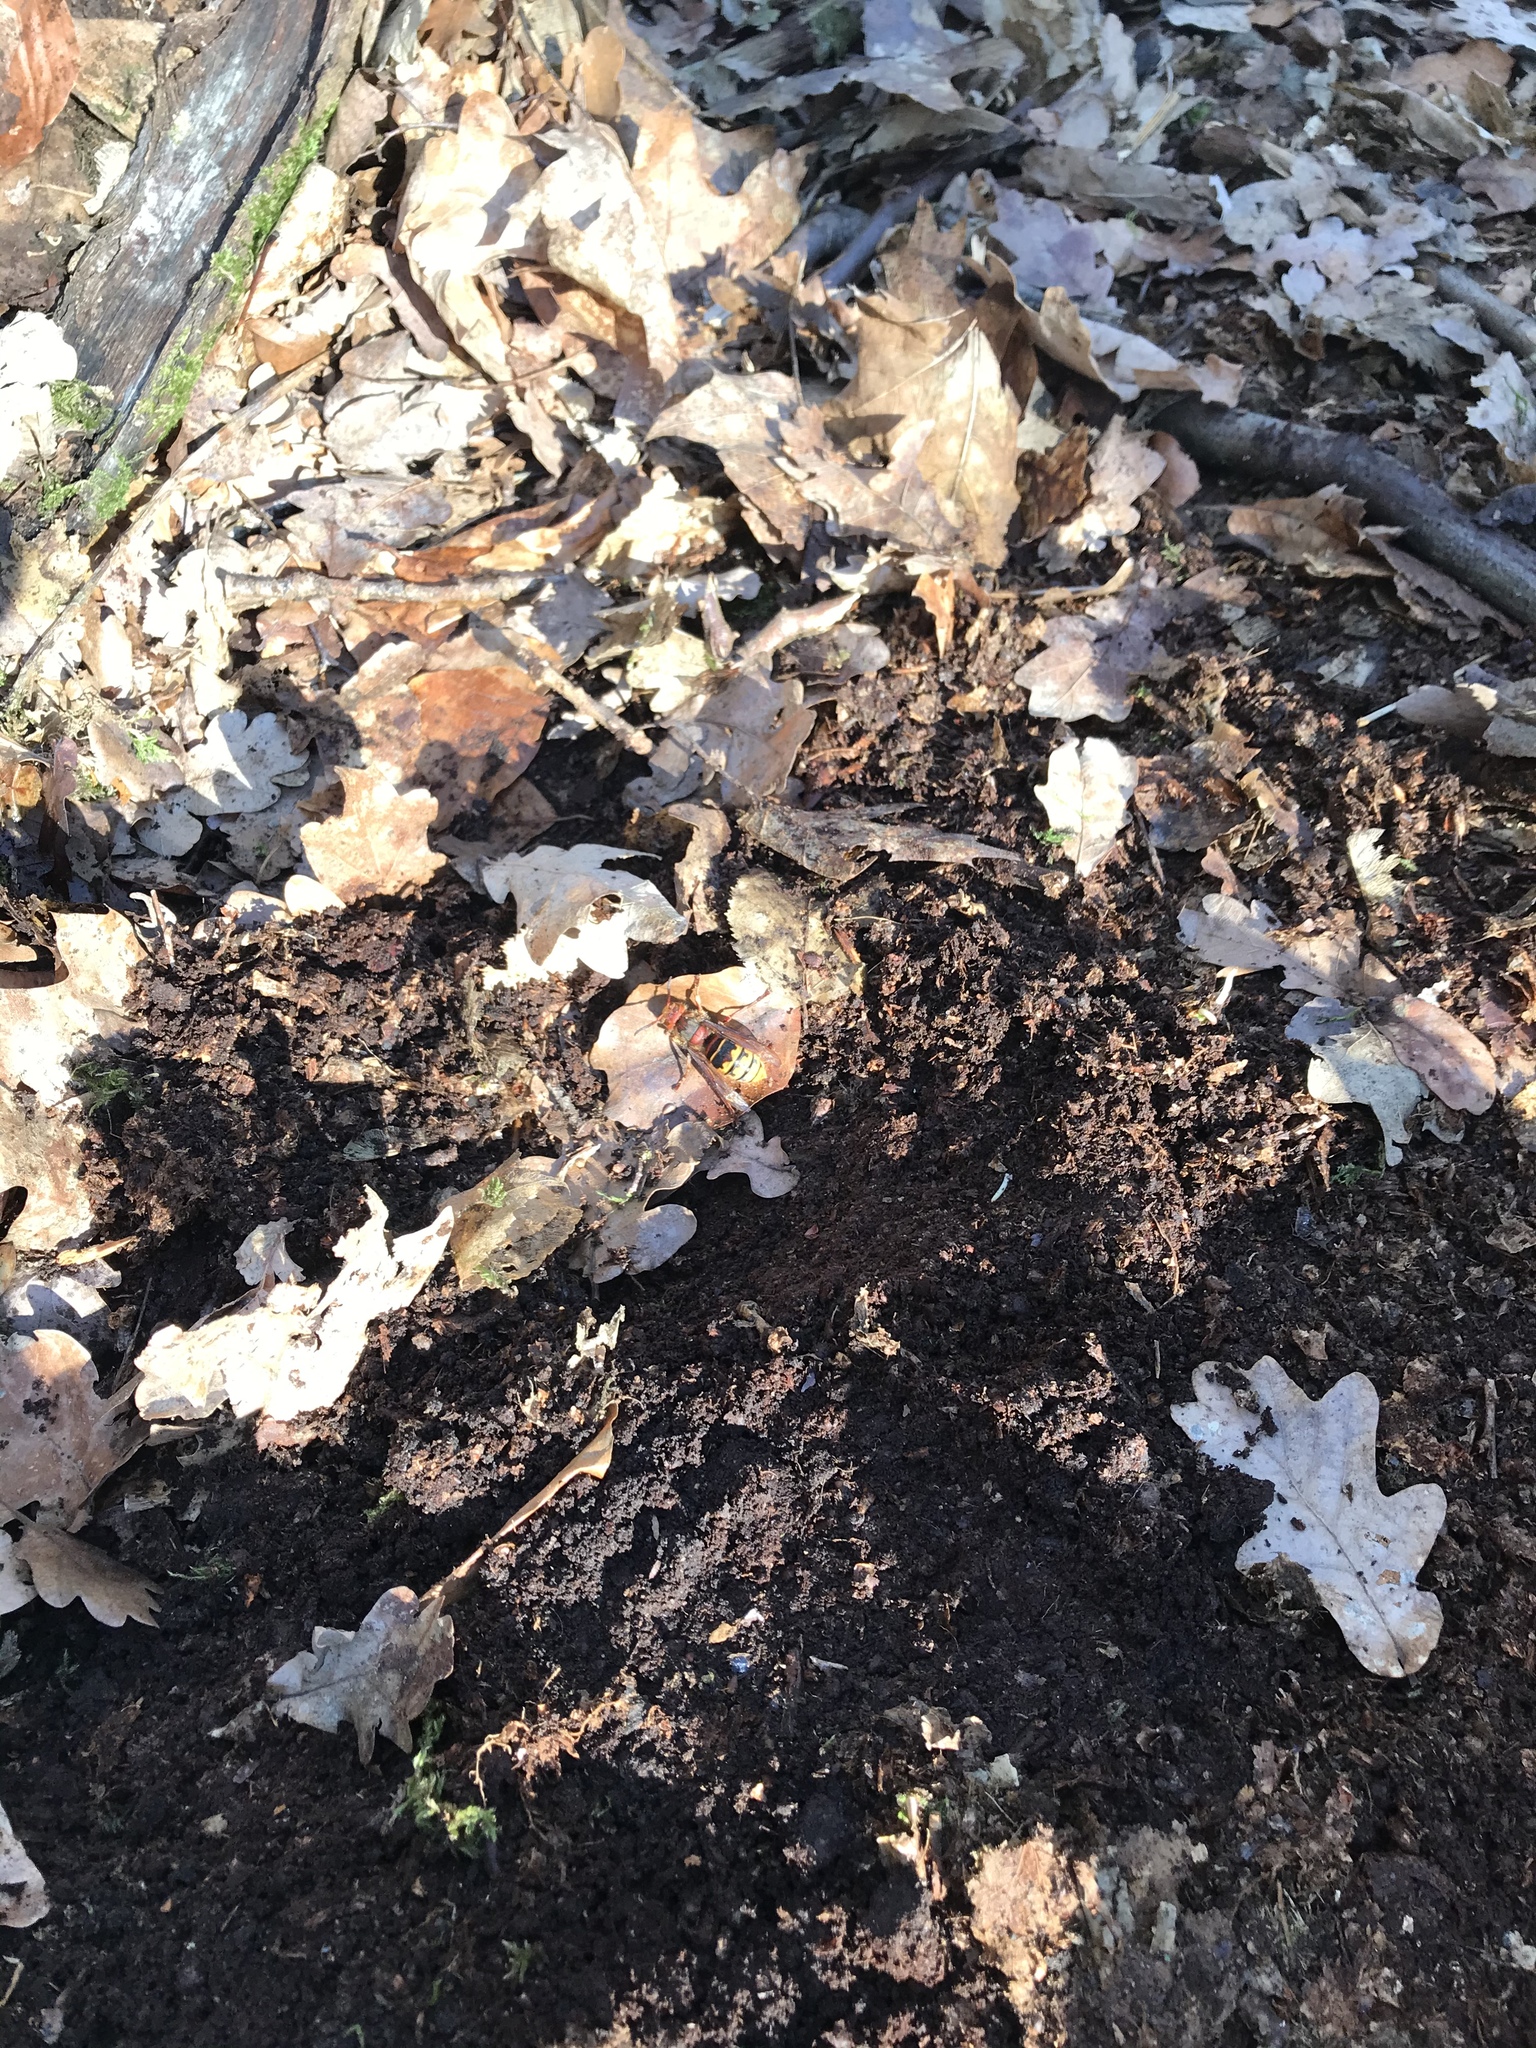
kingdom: Animalia
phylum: Arthropoda
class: Insecta
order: Hymenoptera
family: Vespidae
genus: Vespa
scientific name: Vespa crabro
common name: Hornet
